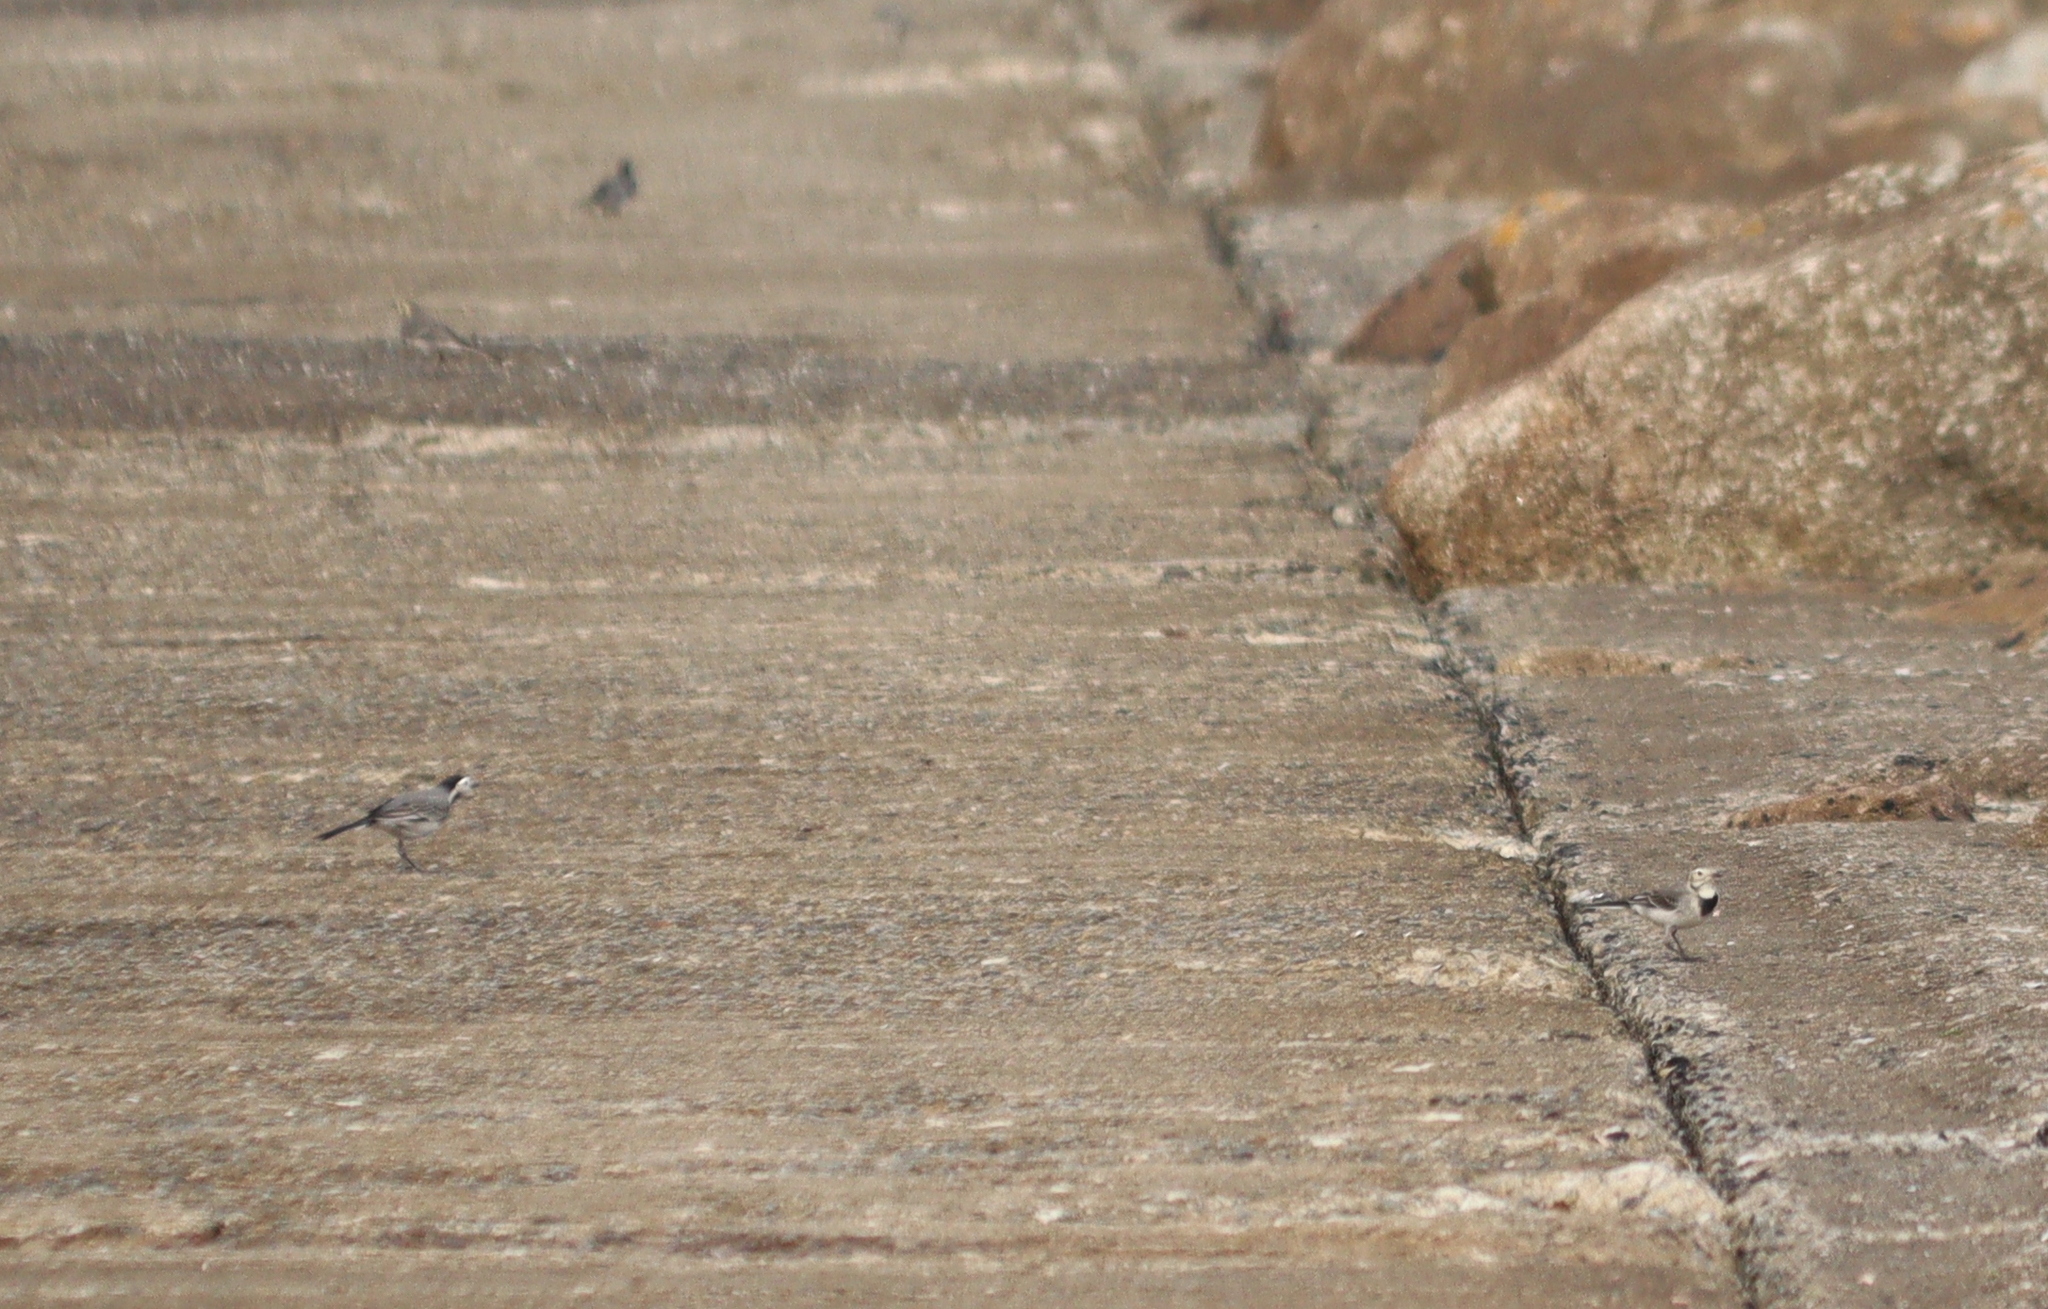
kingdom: Animalia
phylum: Chordata
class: Aves
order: Passeriformes
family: Motacillidae
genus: Motacilla
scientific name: Motacilla alba
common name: White wagtail
